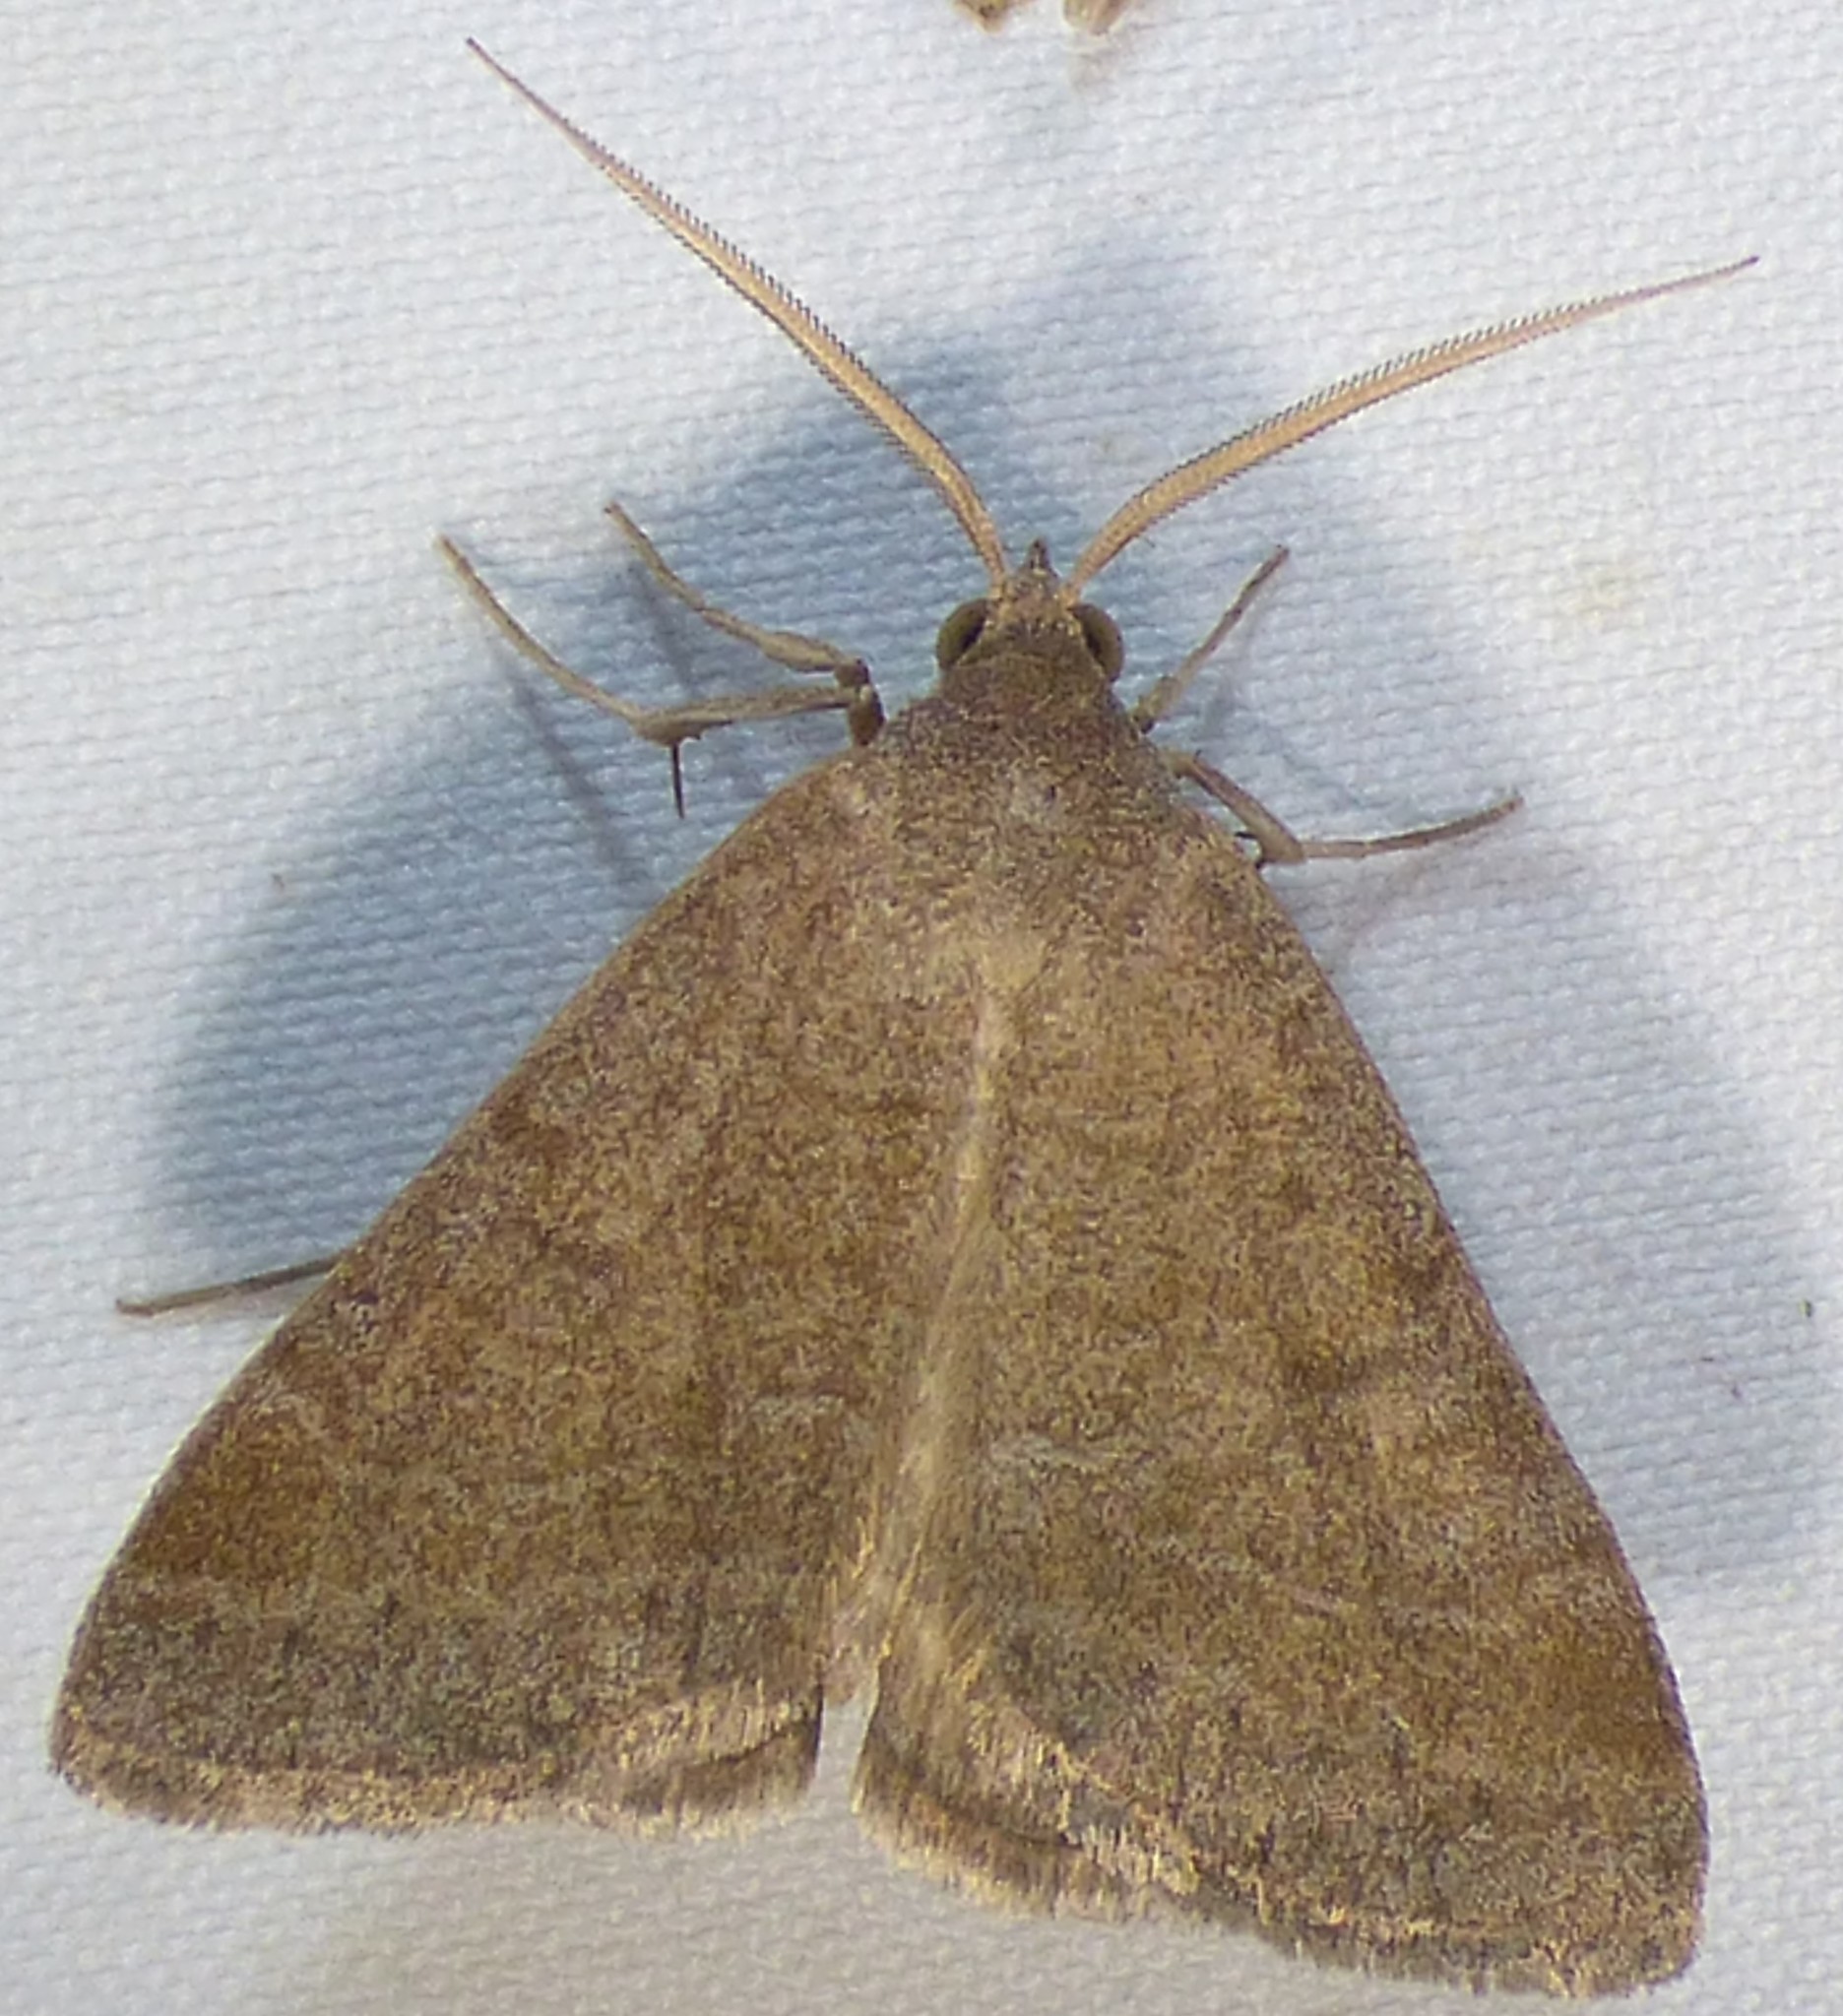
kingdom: Animalia
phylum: Arthropoda
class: Insecta
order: Lepidoptera
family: Erebidae
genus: Caenurgia
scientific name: Caenurgia chloropha
